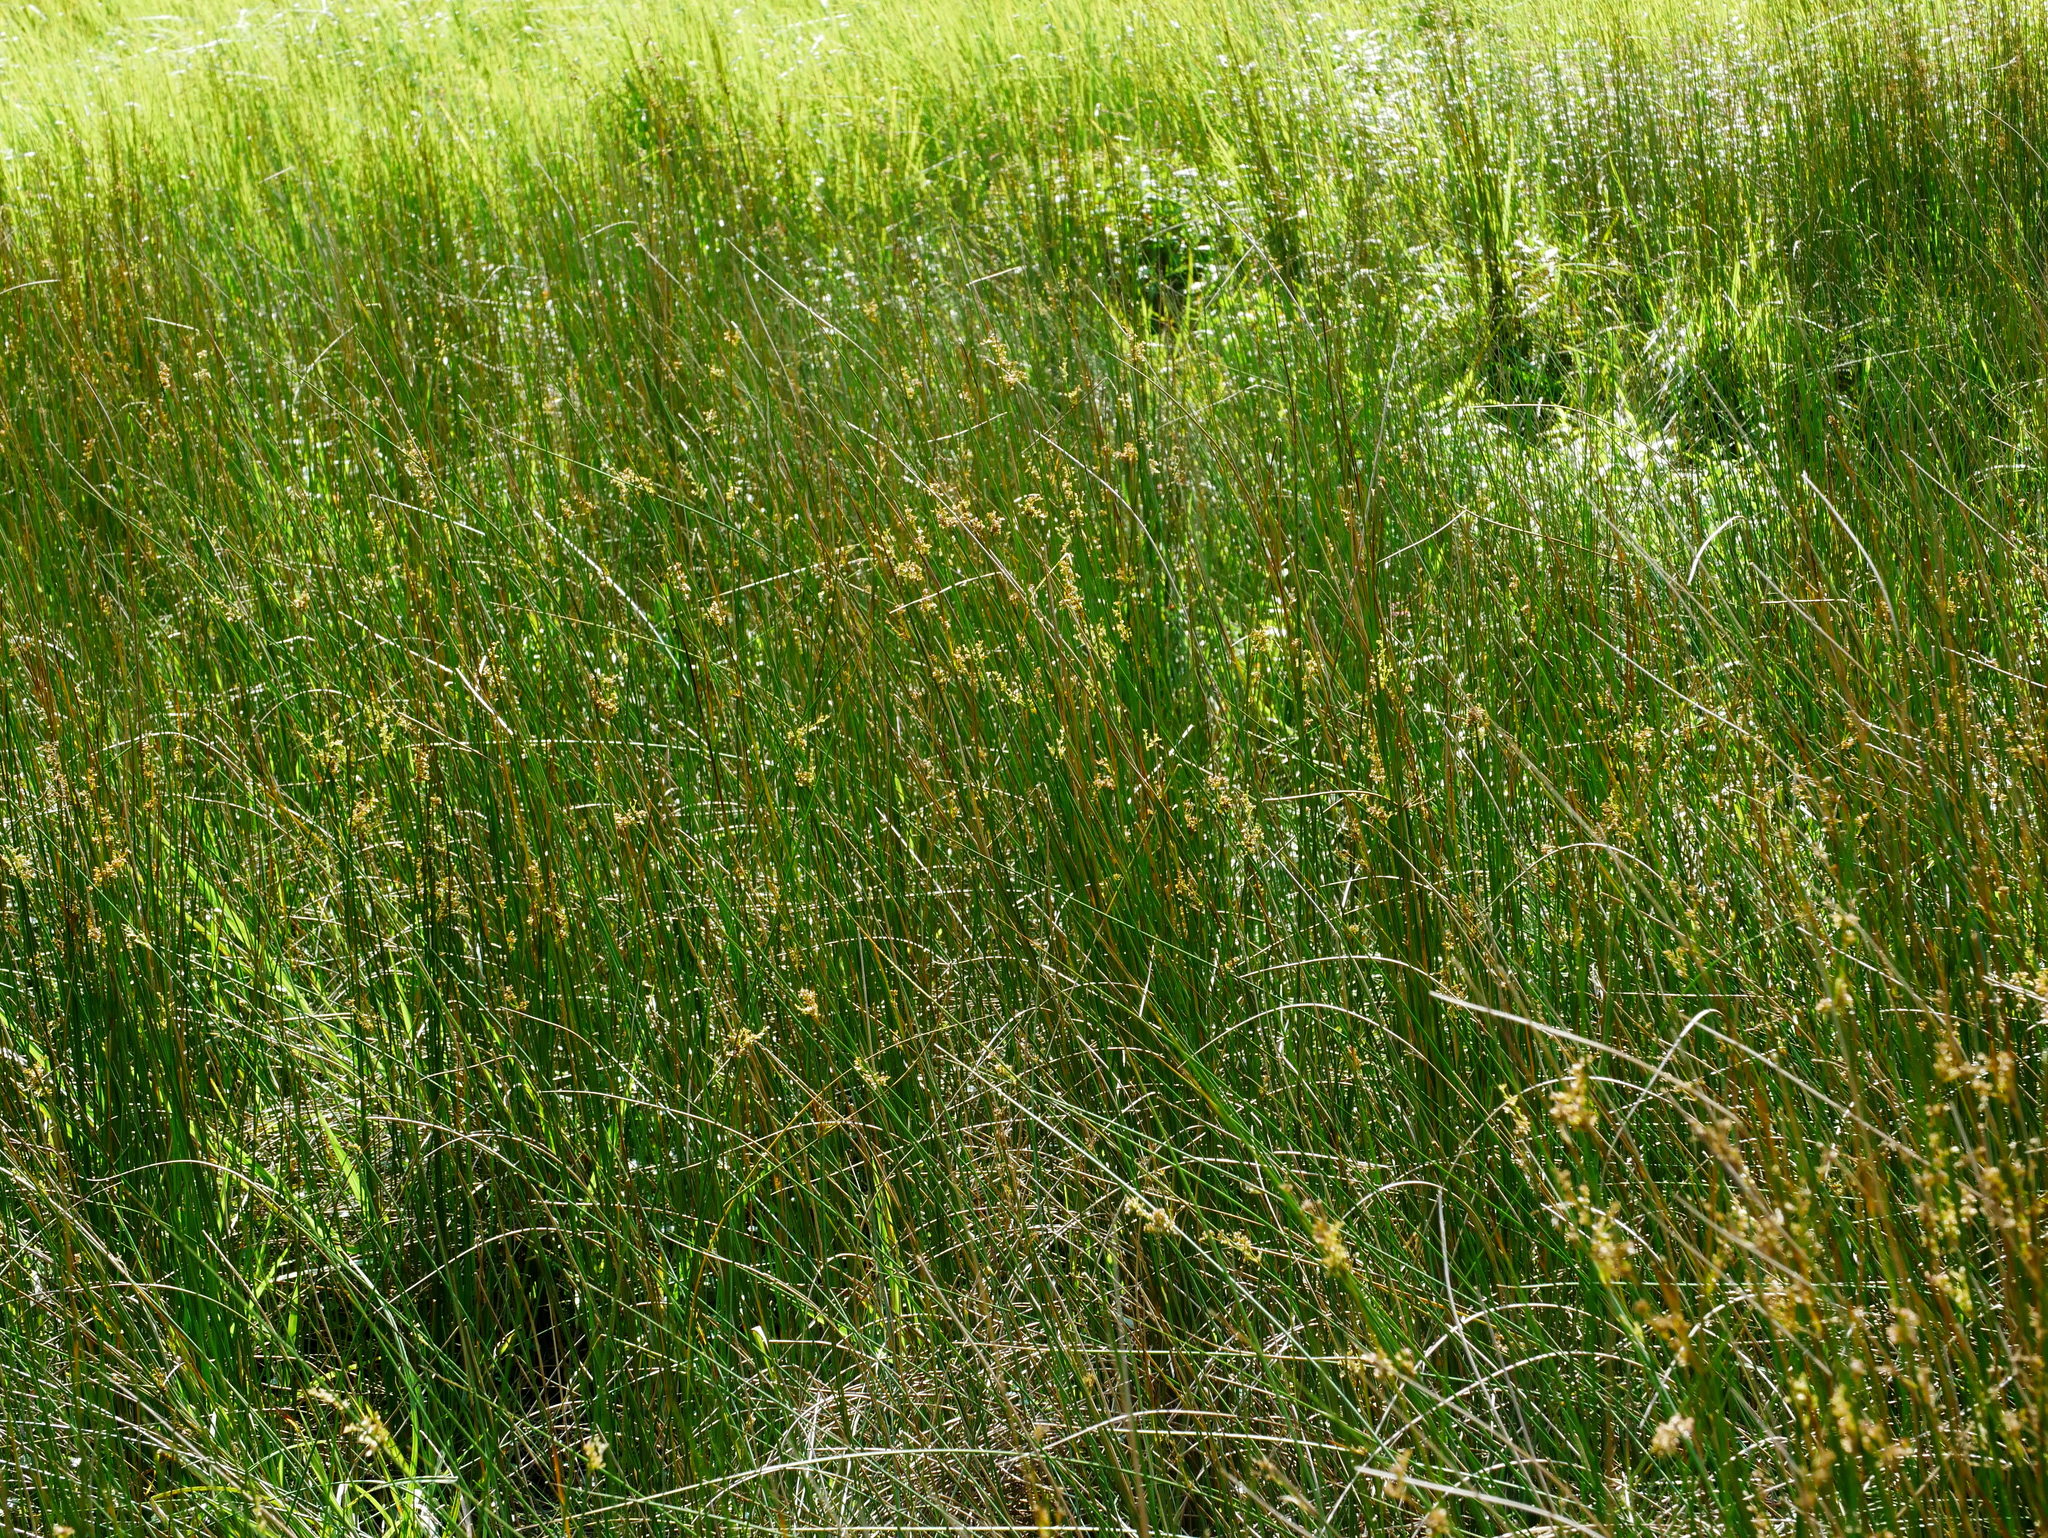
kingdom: Plantae
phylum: Tracheophyta
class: Liliopsida
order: Poales
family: Juncaceae
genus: Juncus
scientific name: Juncus effusus
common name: Soft rush
